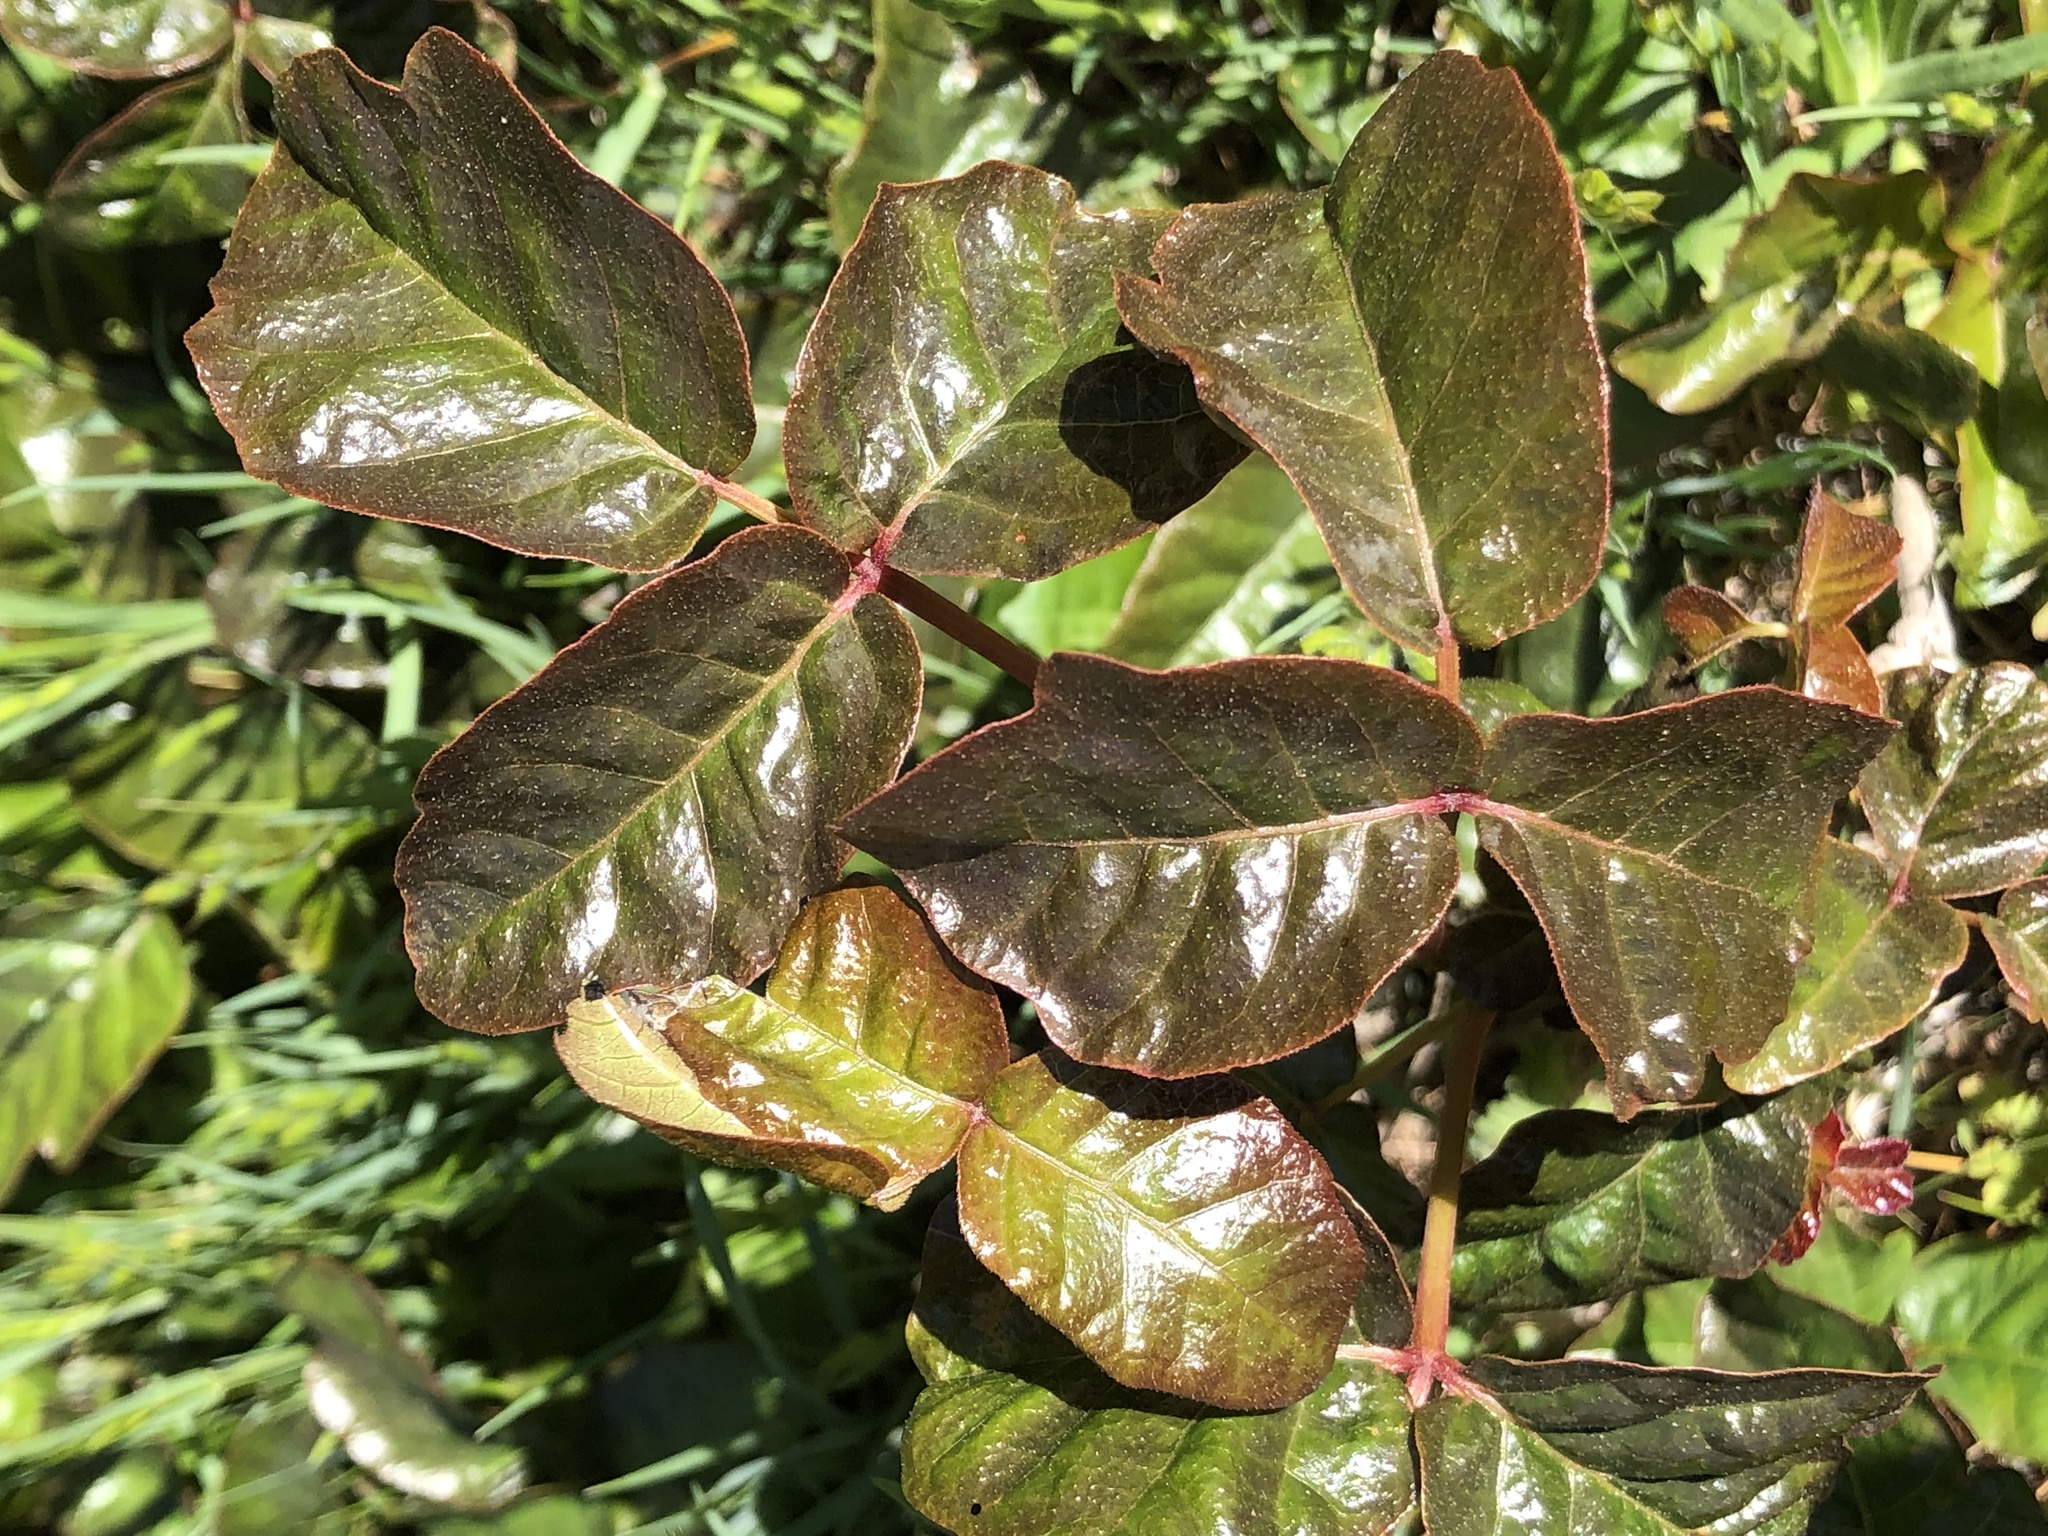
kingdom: Plantae
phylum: Tracheophyta
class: Magnoliopsida
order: Sapindales
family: Anacardiaceae
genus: Toxicodendron
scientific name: Toxicodendron diversilobum
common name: Pacific poison-oak
